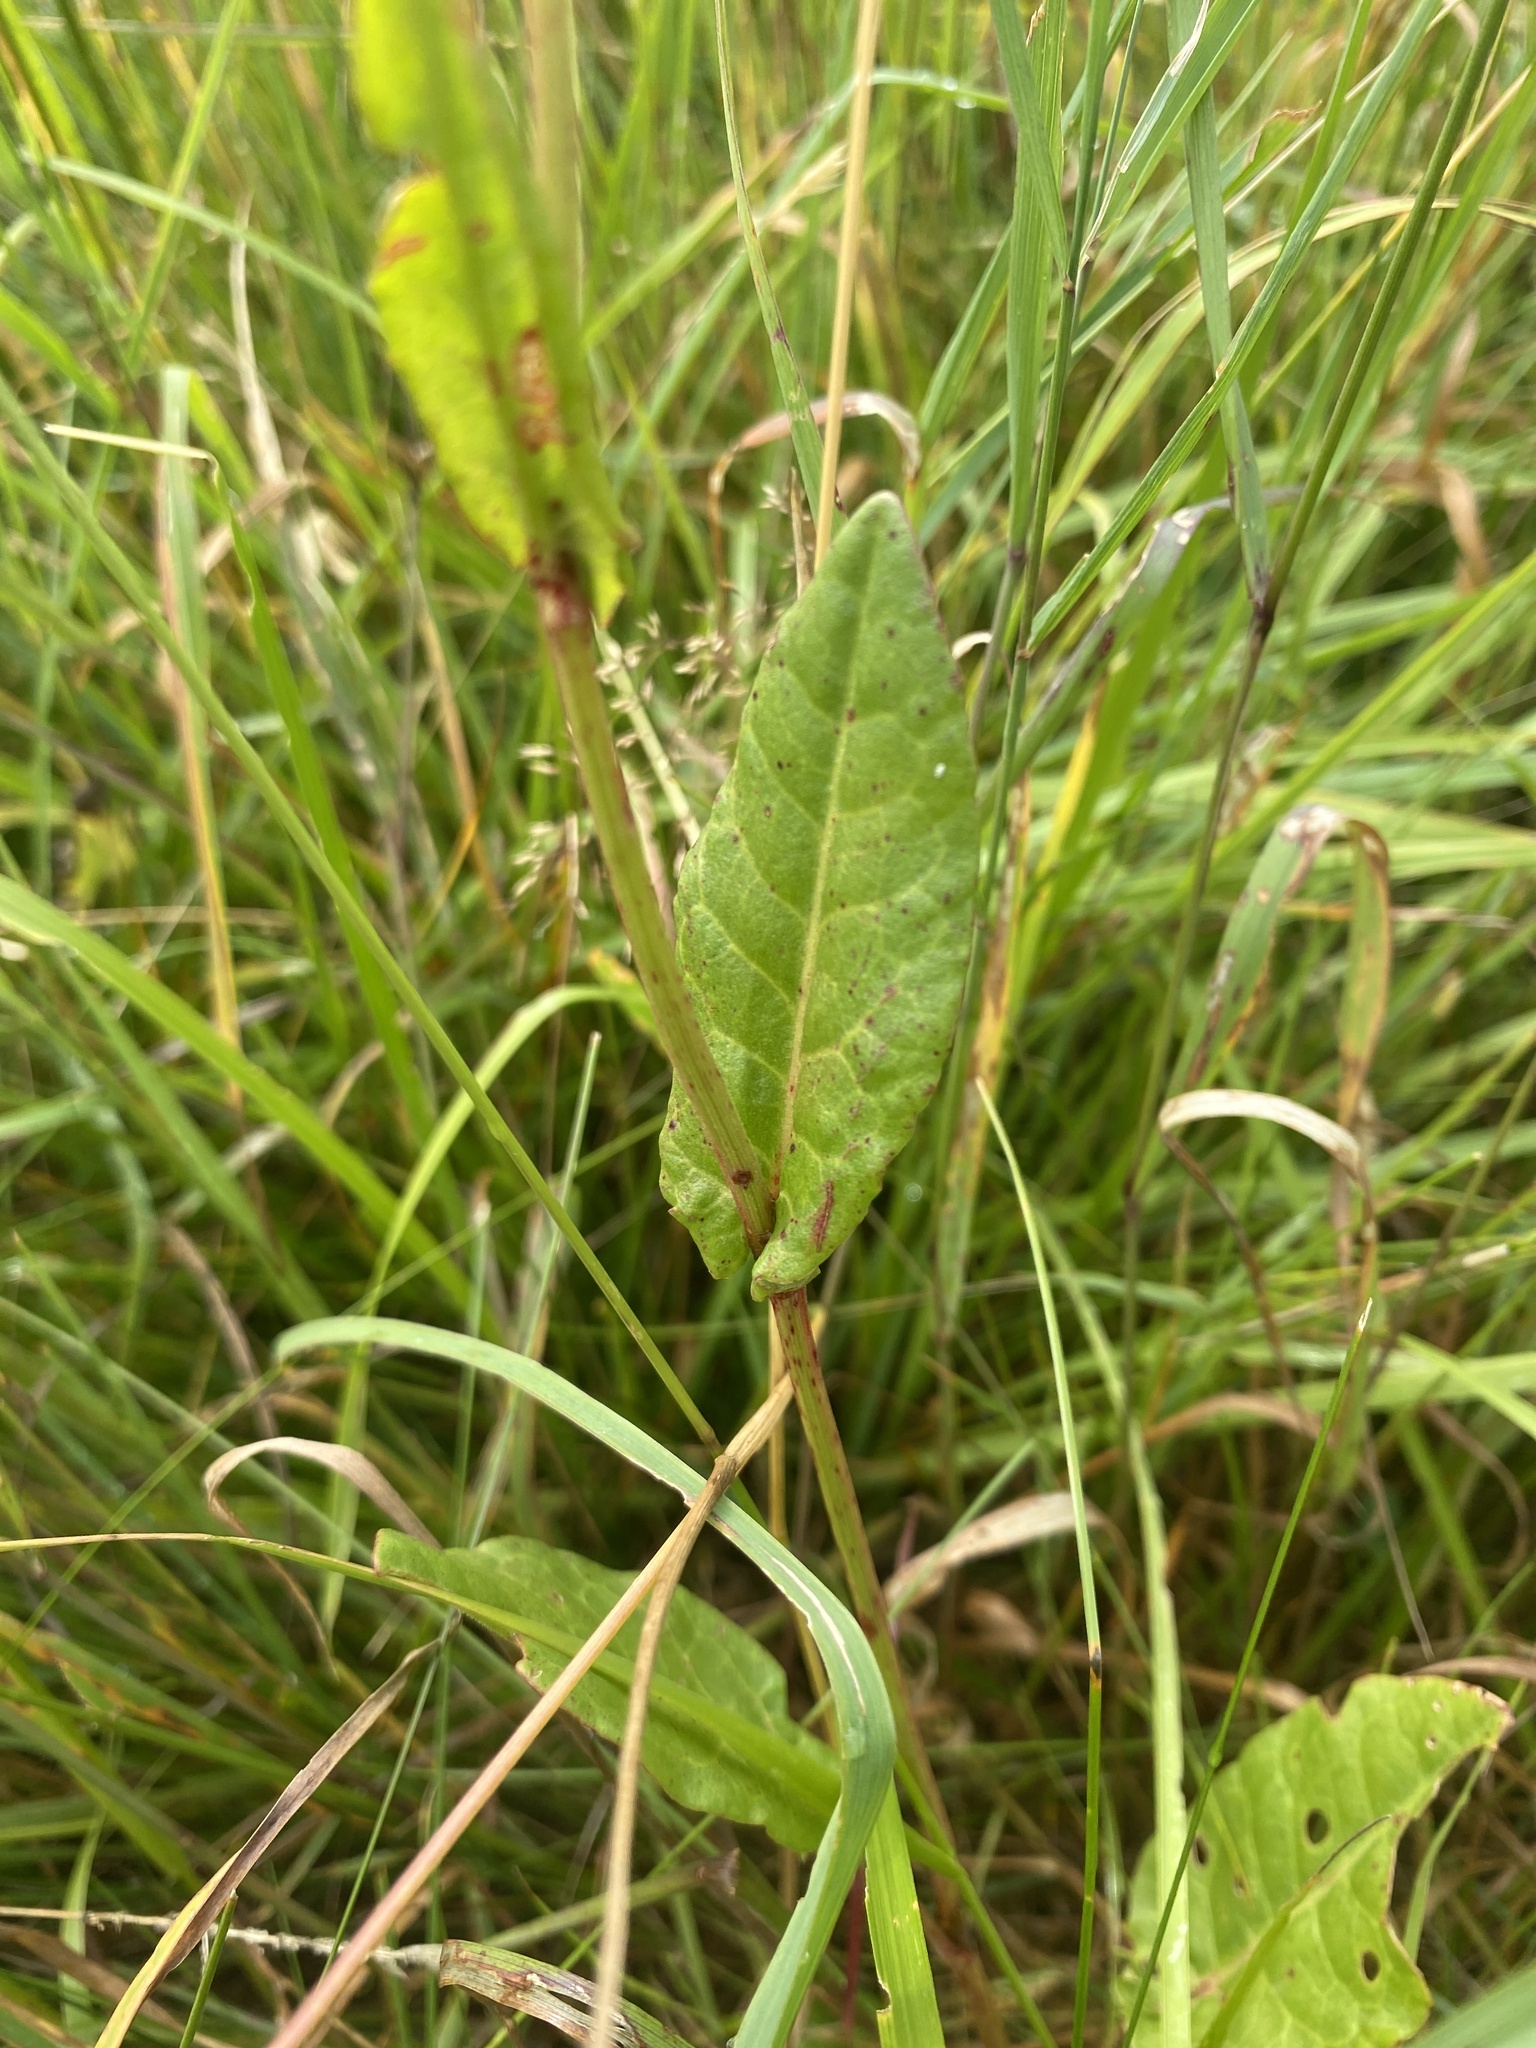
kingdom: Plantae
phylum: Tracheophyta
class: Magnoliopsida
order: Caryophyllales
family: Polygonaceae
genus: Rumex
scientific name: Rumex acetosa
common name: Garden sorrel
